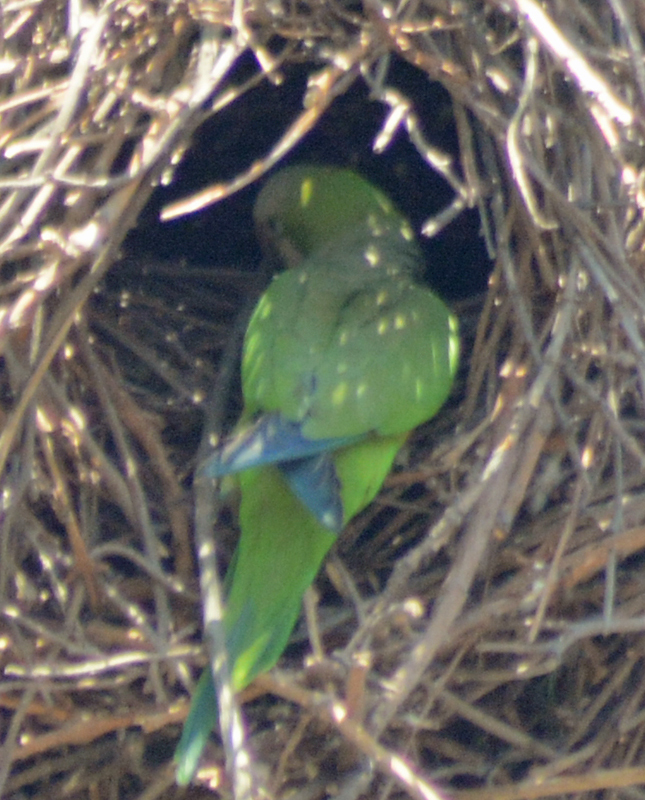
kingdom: Animalia
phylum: Chordata
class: Aves
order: Psittaciformes
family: Psittacidae
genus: Myiopsitta
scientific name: Myiopsitta monachus
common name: Monk parakeet
